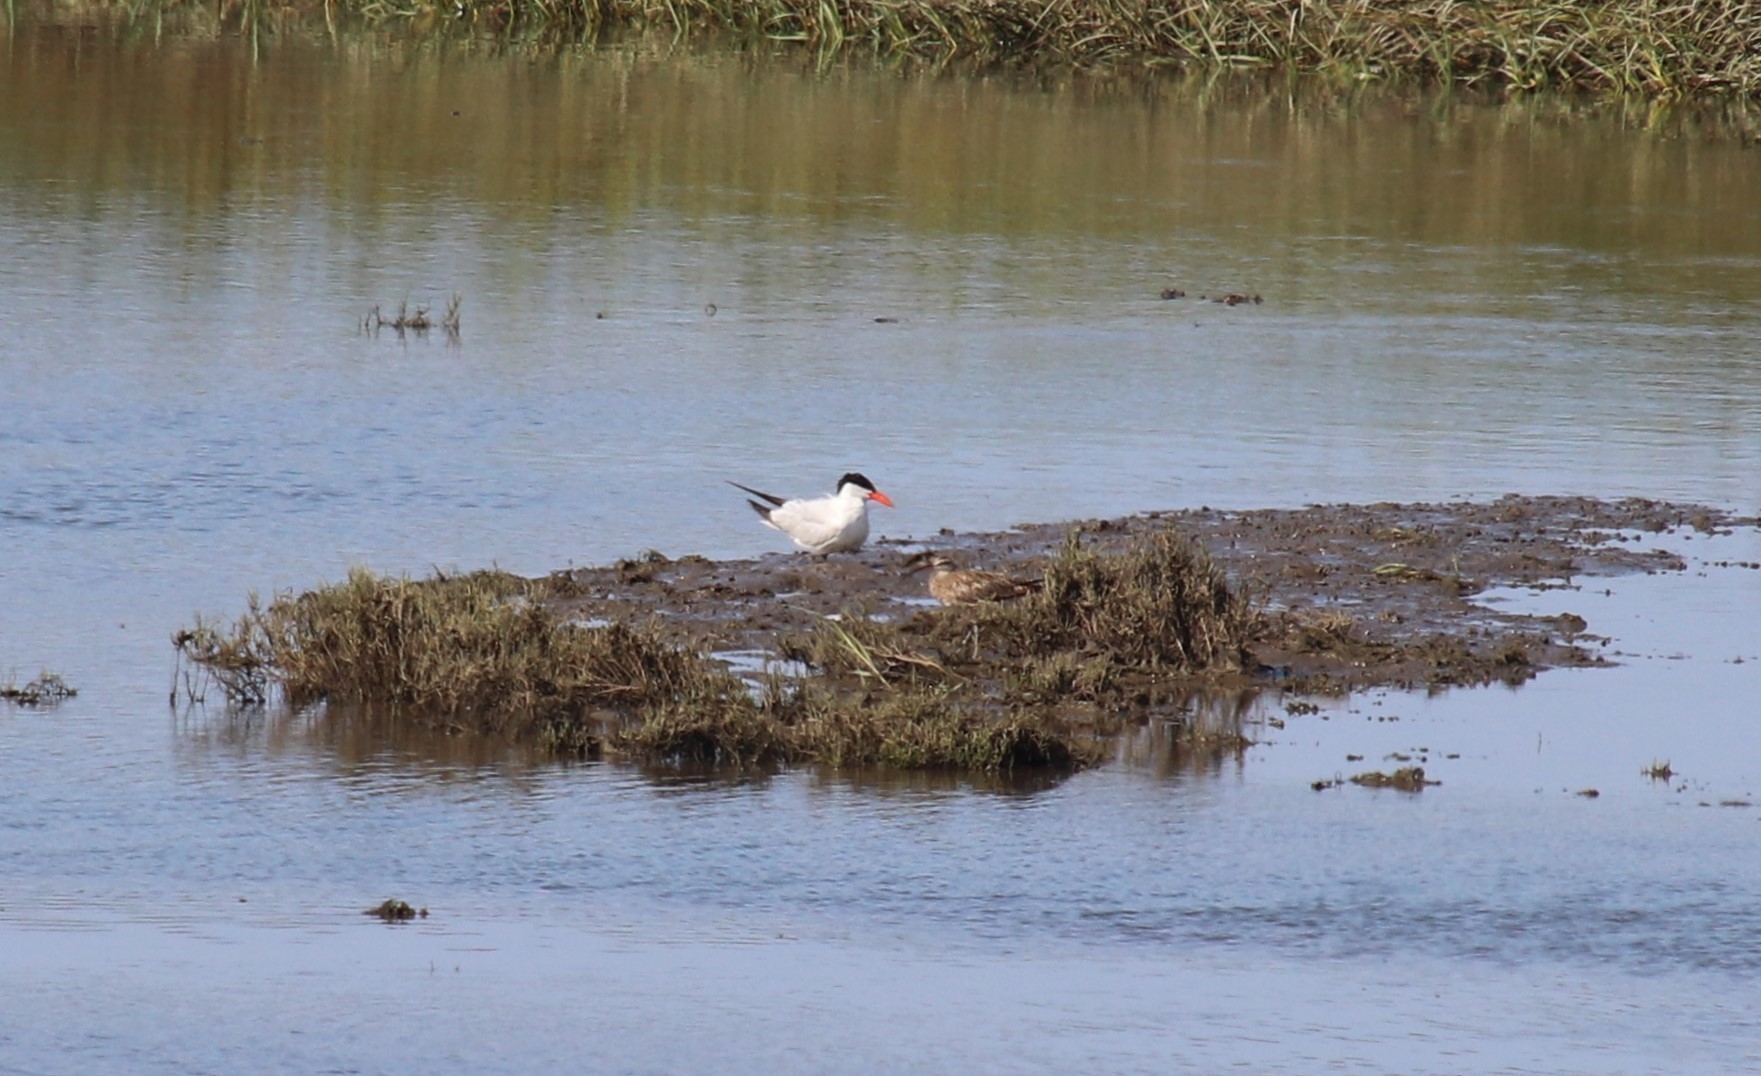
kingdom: Animalia
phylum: Chordata
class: Aves
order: Charadriiformes
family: Laridae
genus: Hydroprogne
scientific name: Hydroprogne caspia
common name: Caspian tern
